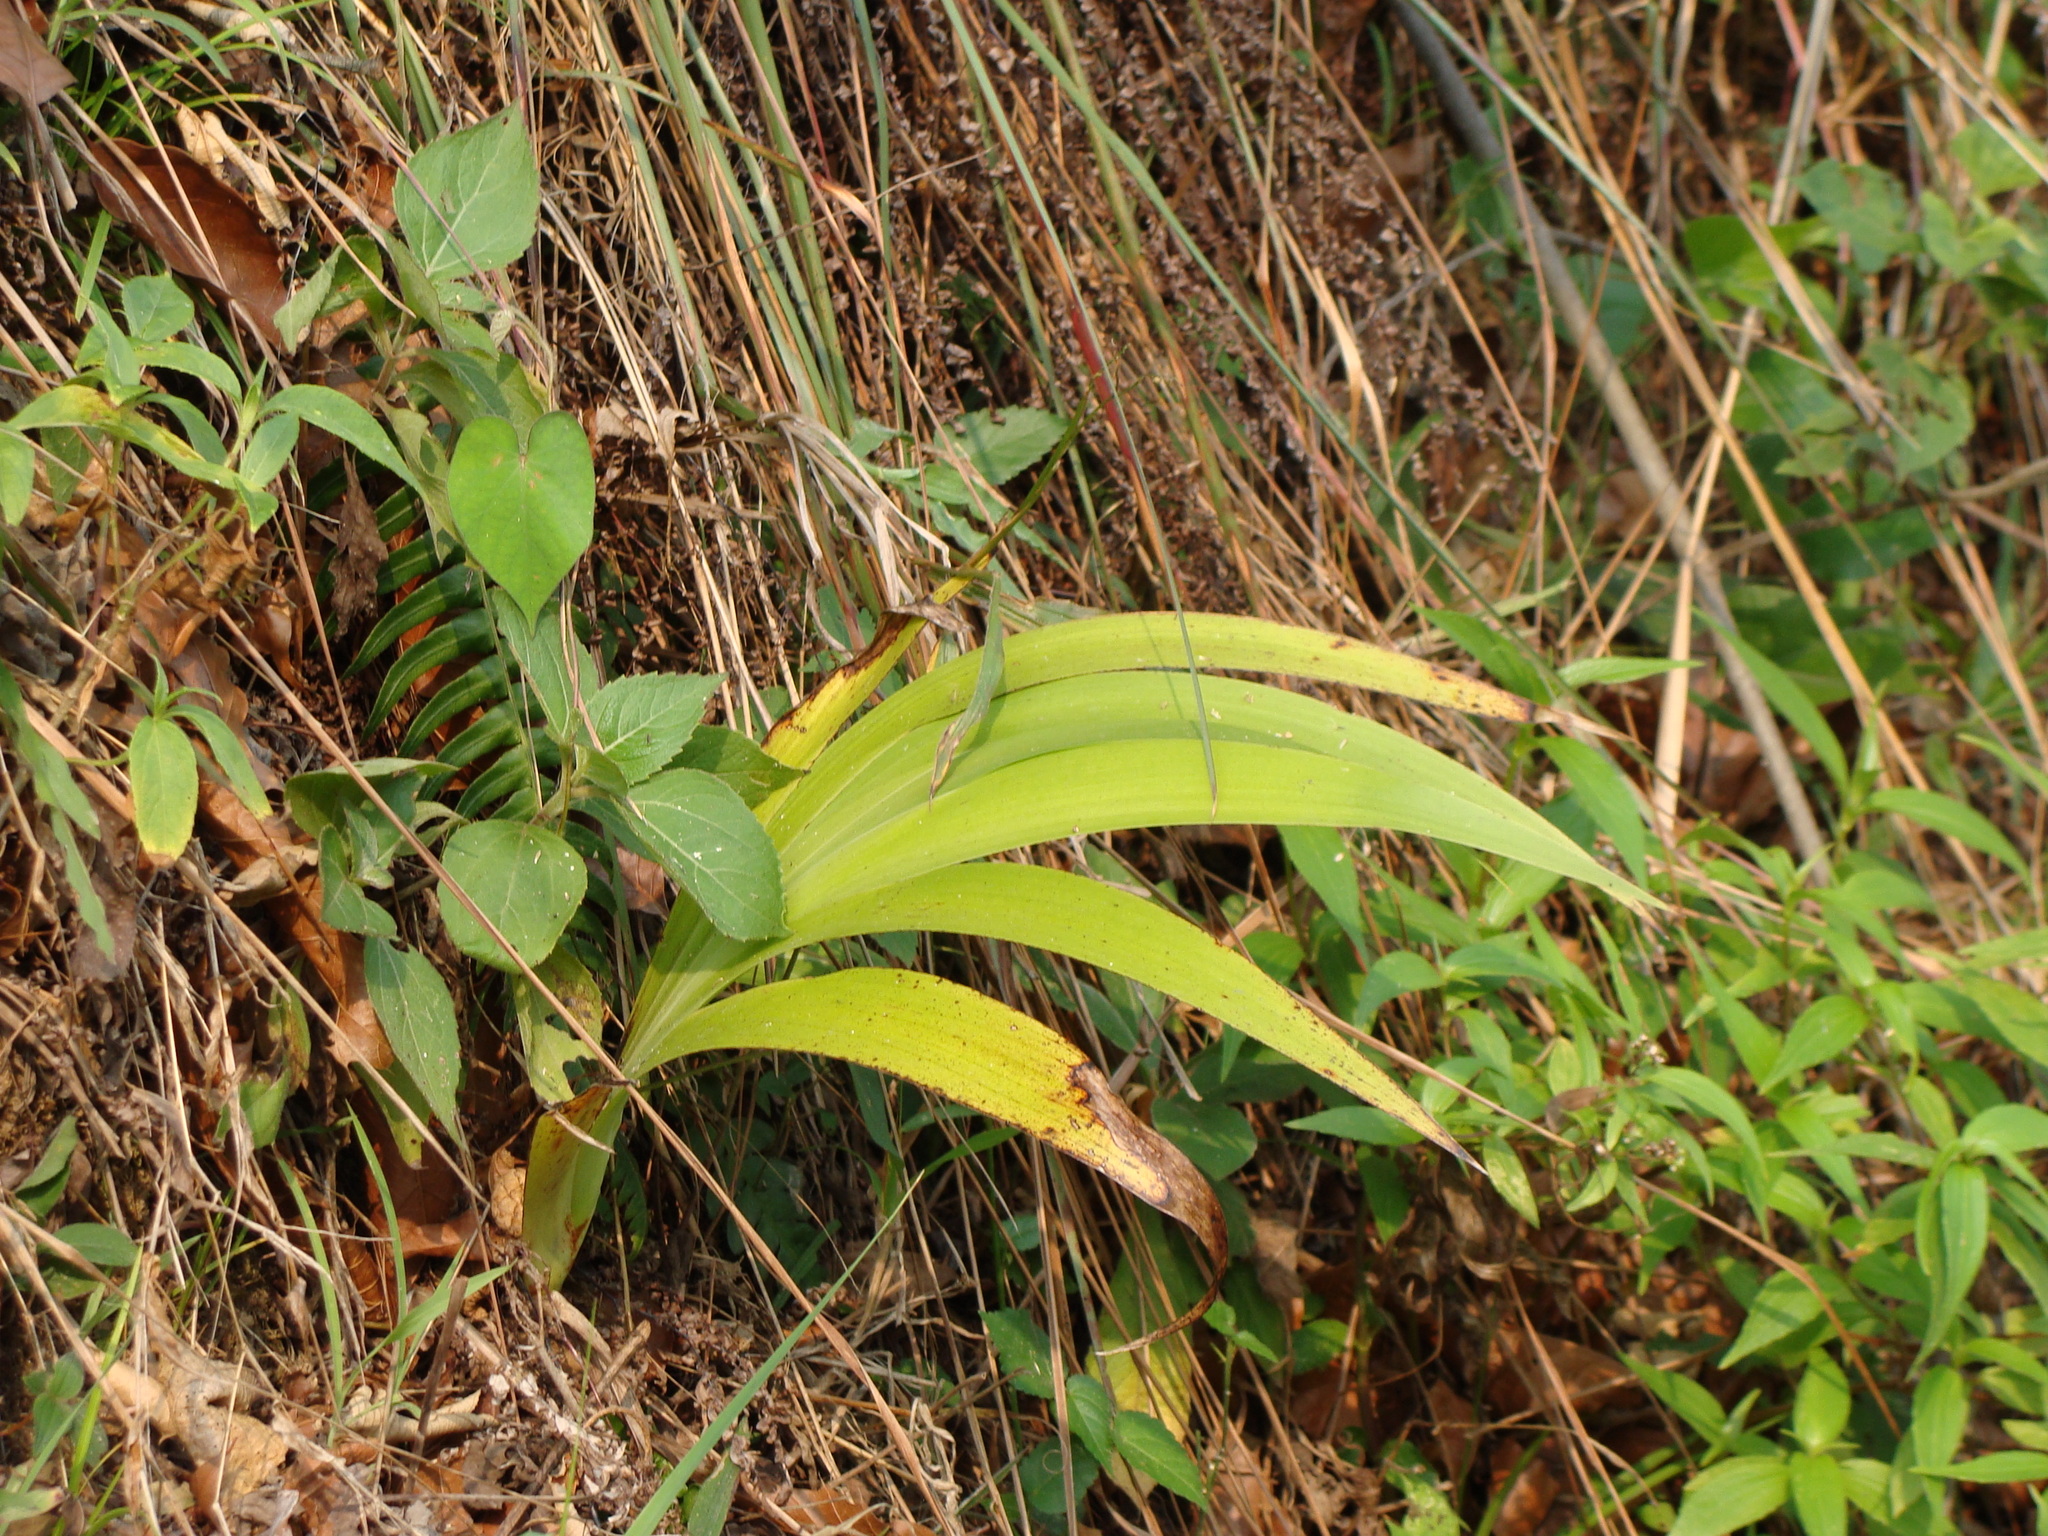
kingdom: Plantae
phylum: Tracheophyta
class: Liliopsida
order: Commelinales
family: Haemodoraceae
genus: Xiphidium
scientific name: Xiphidium caeruleum
